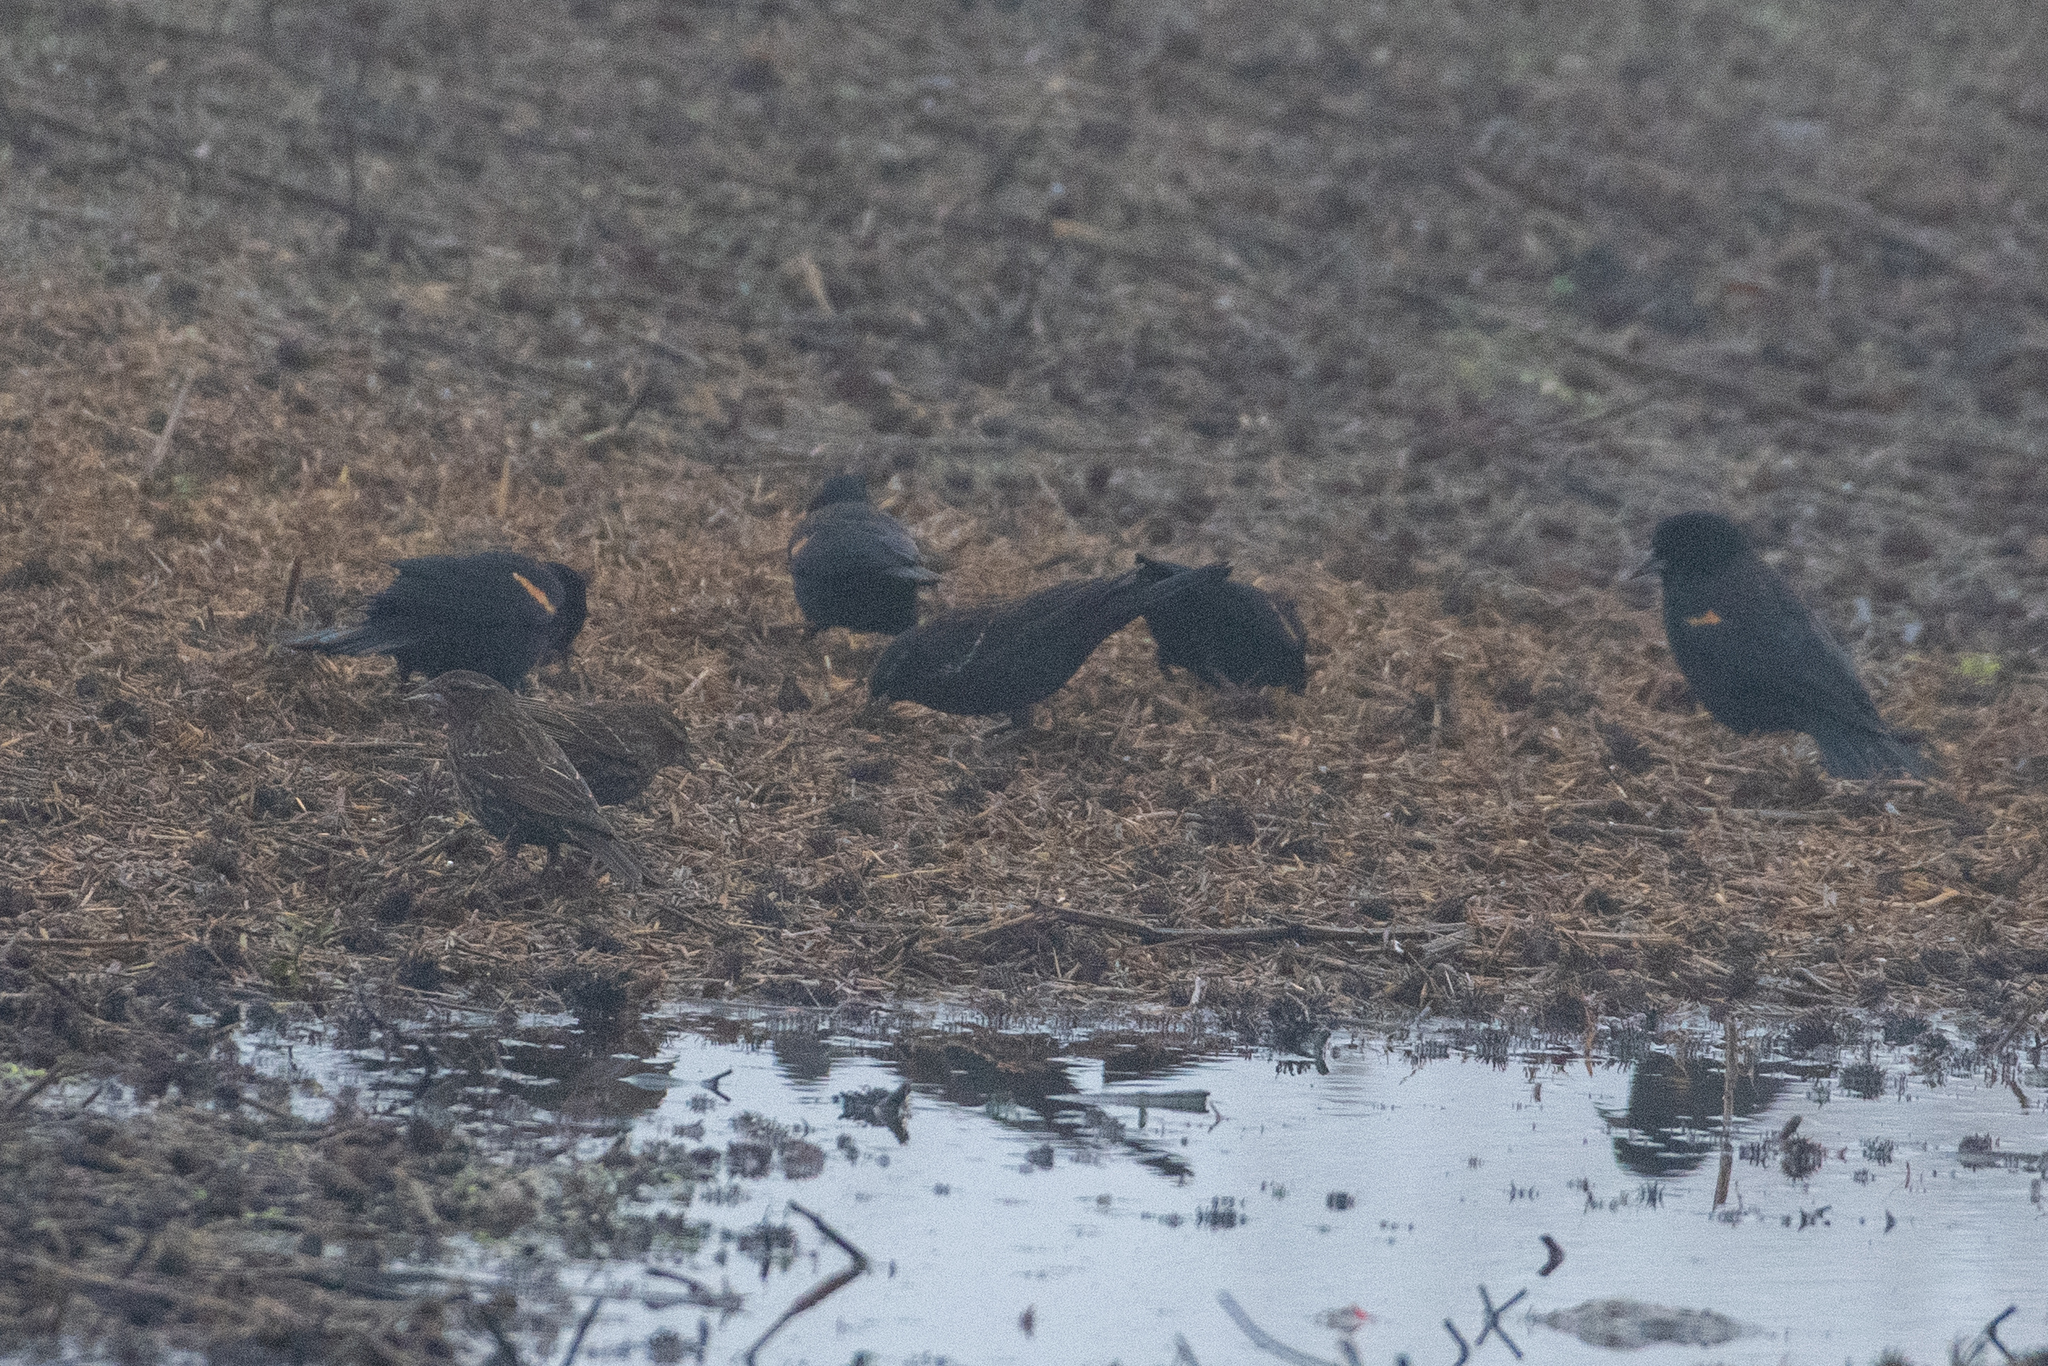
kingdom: Animalia
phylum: Chordata
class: Aves
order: Passeriformes
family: Icteridae
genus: Agelaius
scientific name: Agelaius phoeniceus
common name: Red-winged blackbird
